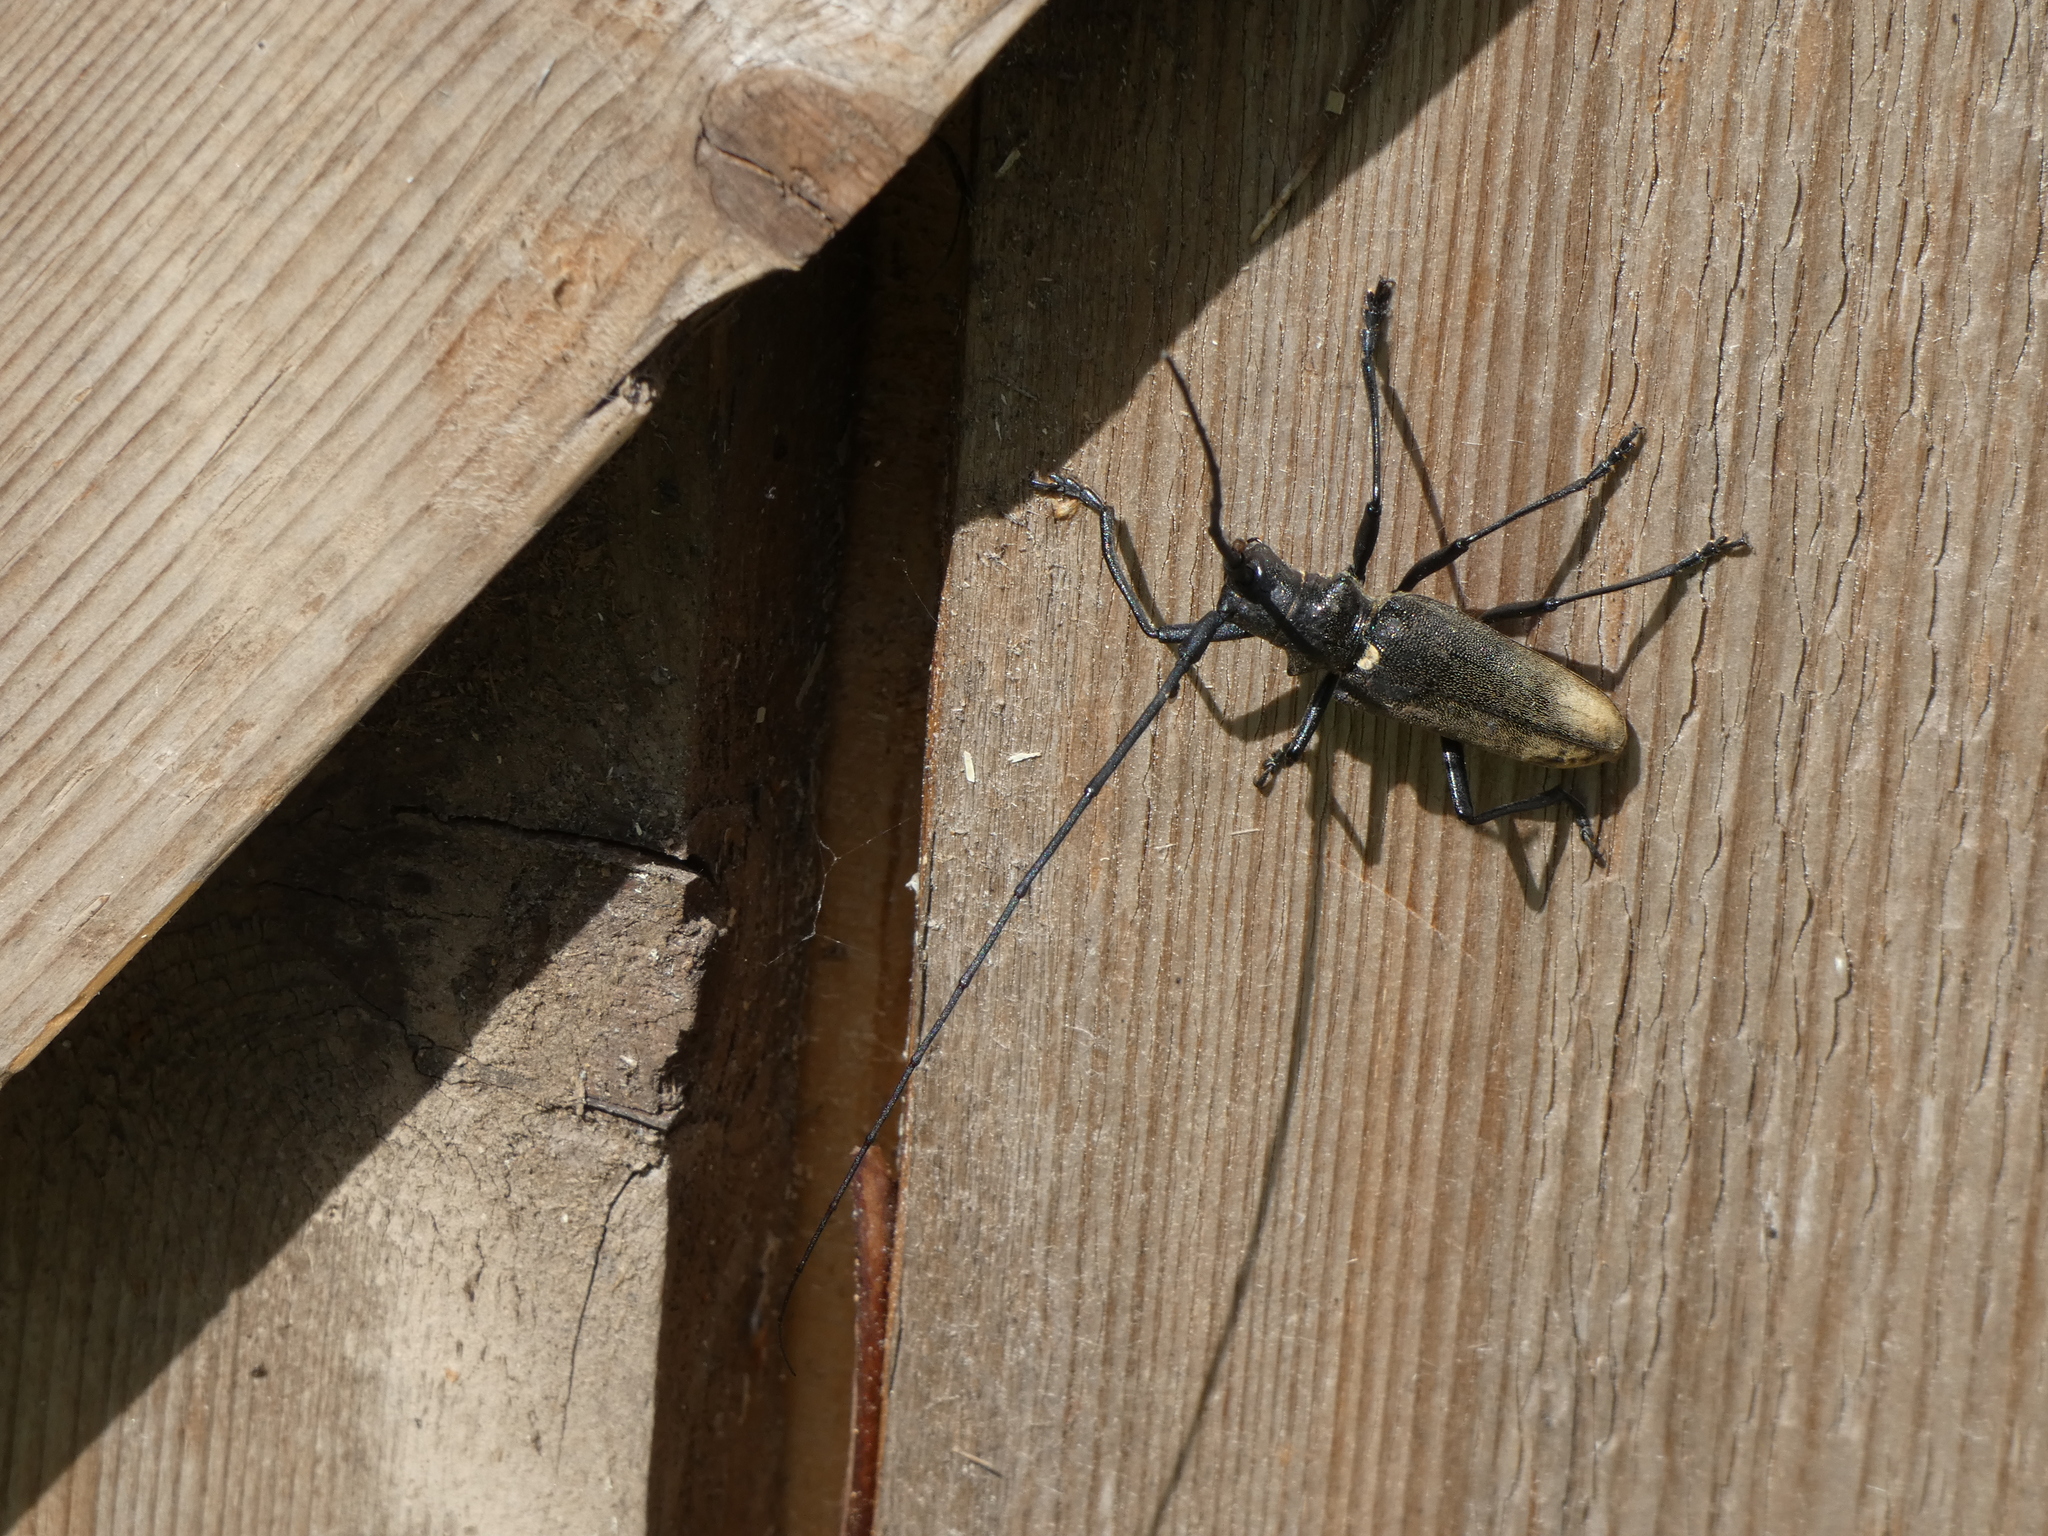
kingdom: Animalia
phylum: Arthropoda
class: Insecta
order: Coleoptera
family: Cerambycidae
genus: Monochamus
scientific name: Monochamus sartor
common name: Pine sawyer
